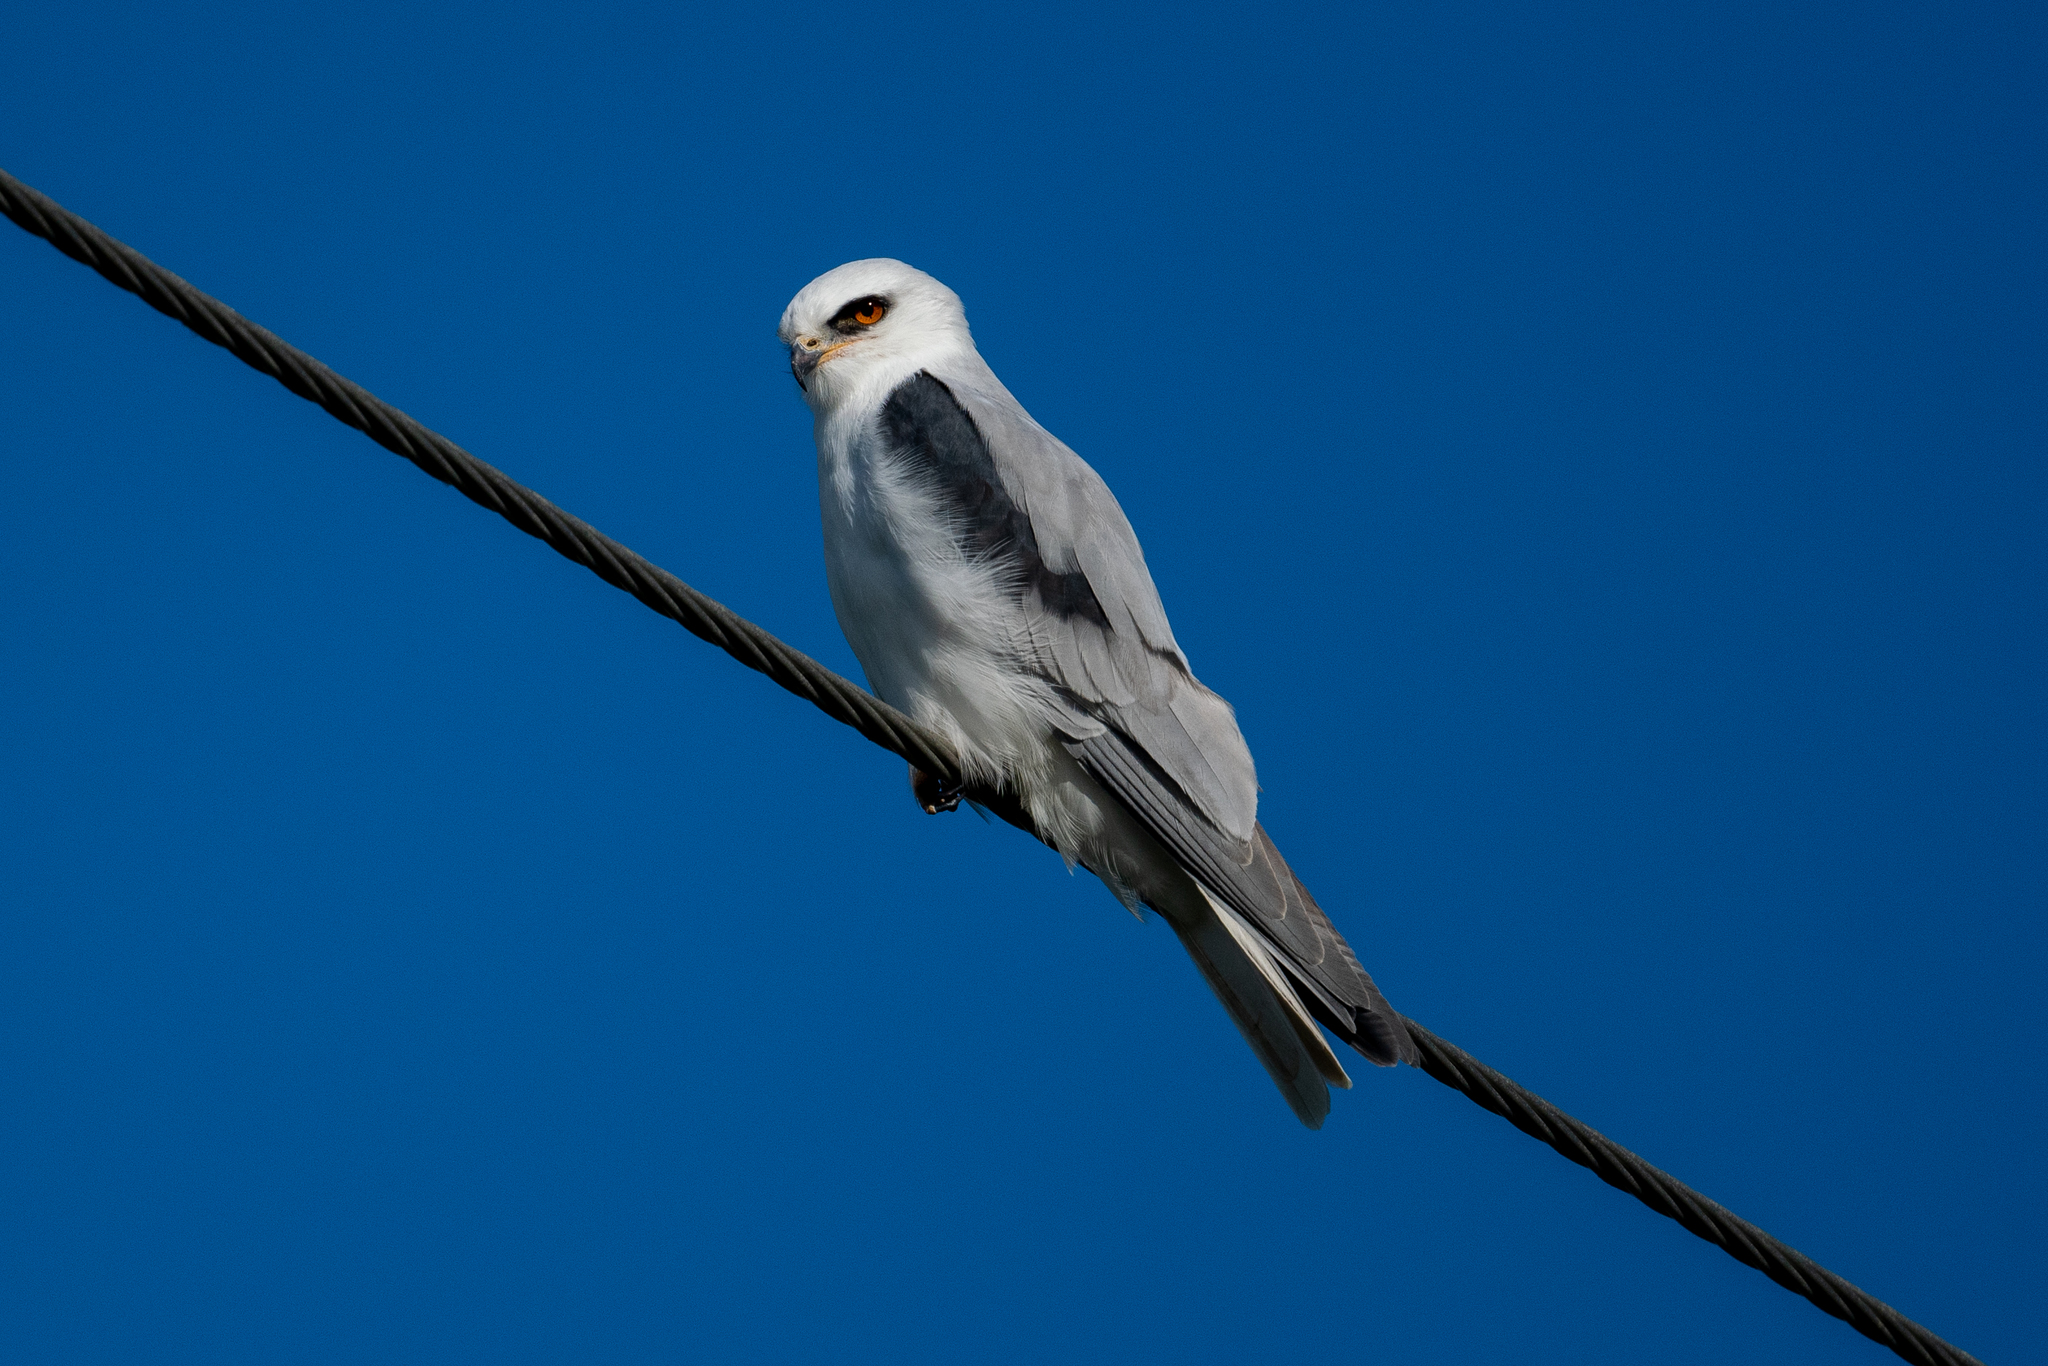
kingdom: Animalia
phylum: Chordata
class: Aves
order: Accipitriformes
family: Accipitridae
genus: Elanus
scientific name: Elanus leucurus
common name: White-tailed kite
